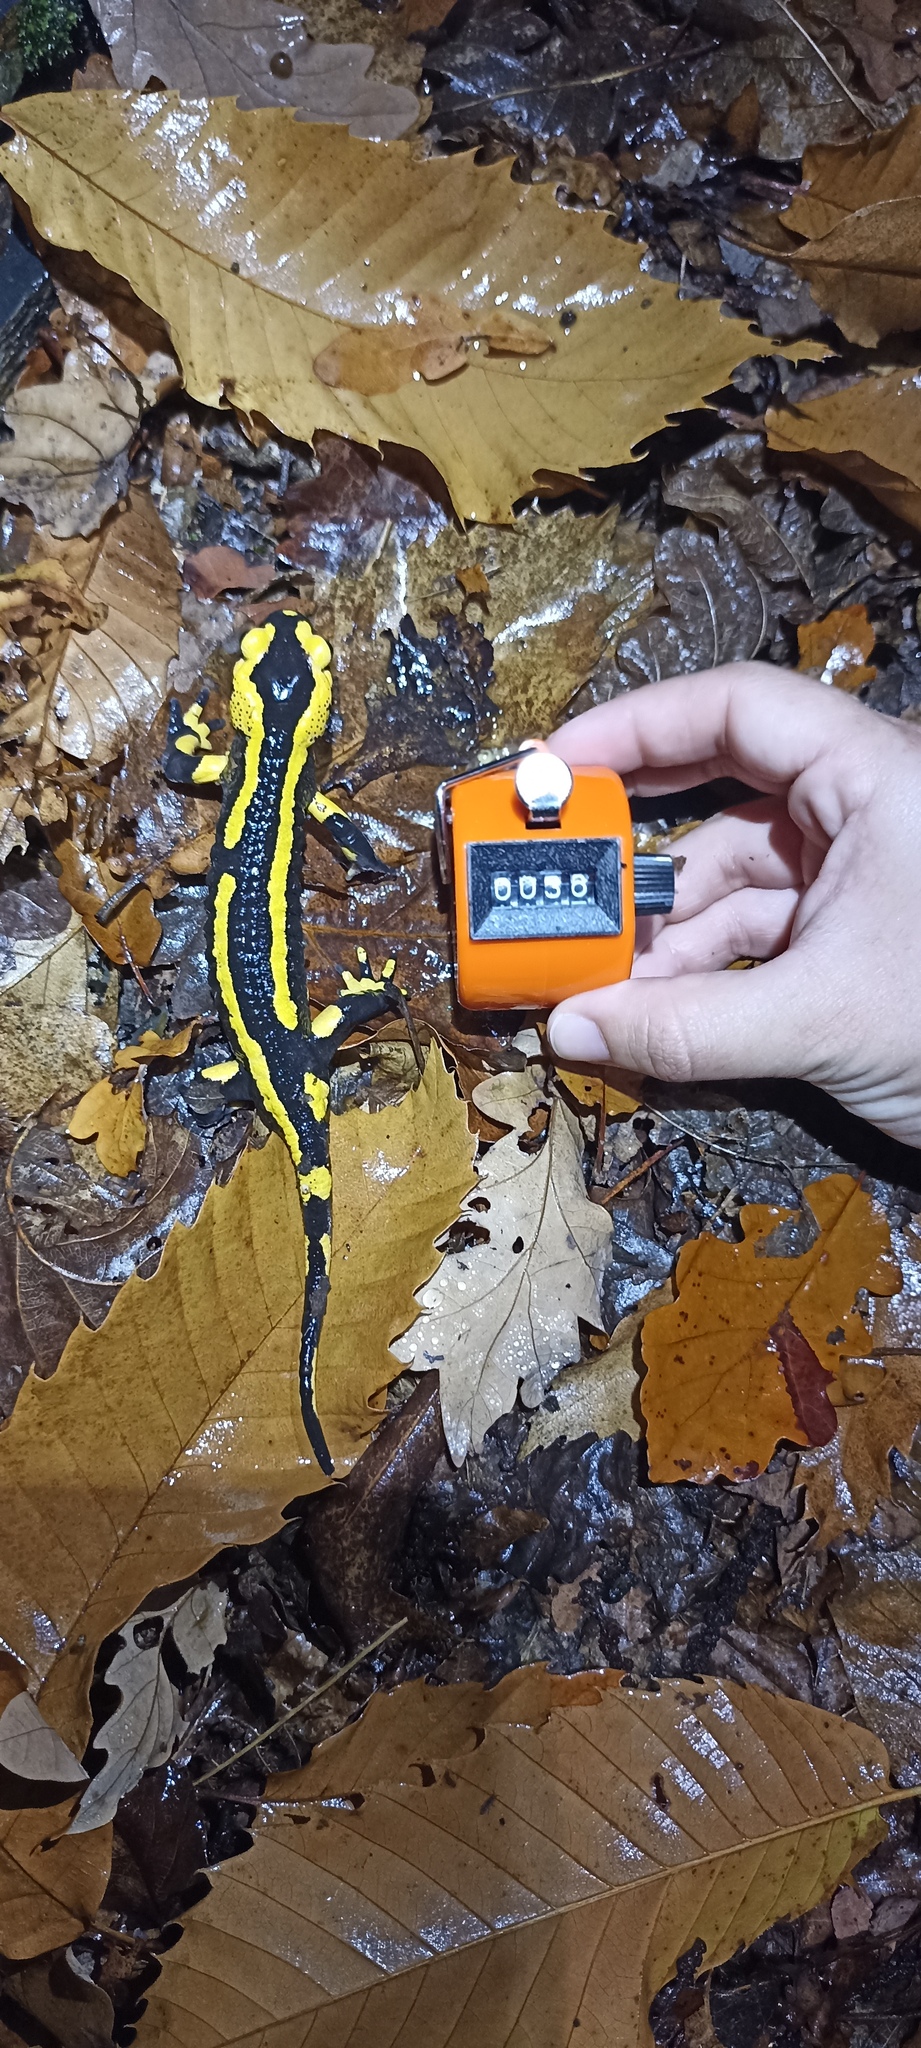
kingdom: Animalia
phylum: Chordata
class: Amphibia
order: Caudata
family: Salamandridae
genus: Salamandra
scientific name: Salamandra salamandra
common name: Fire salamander
